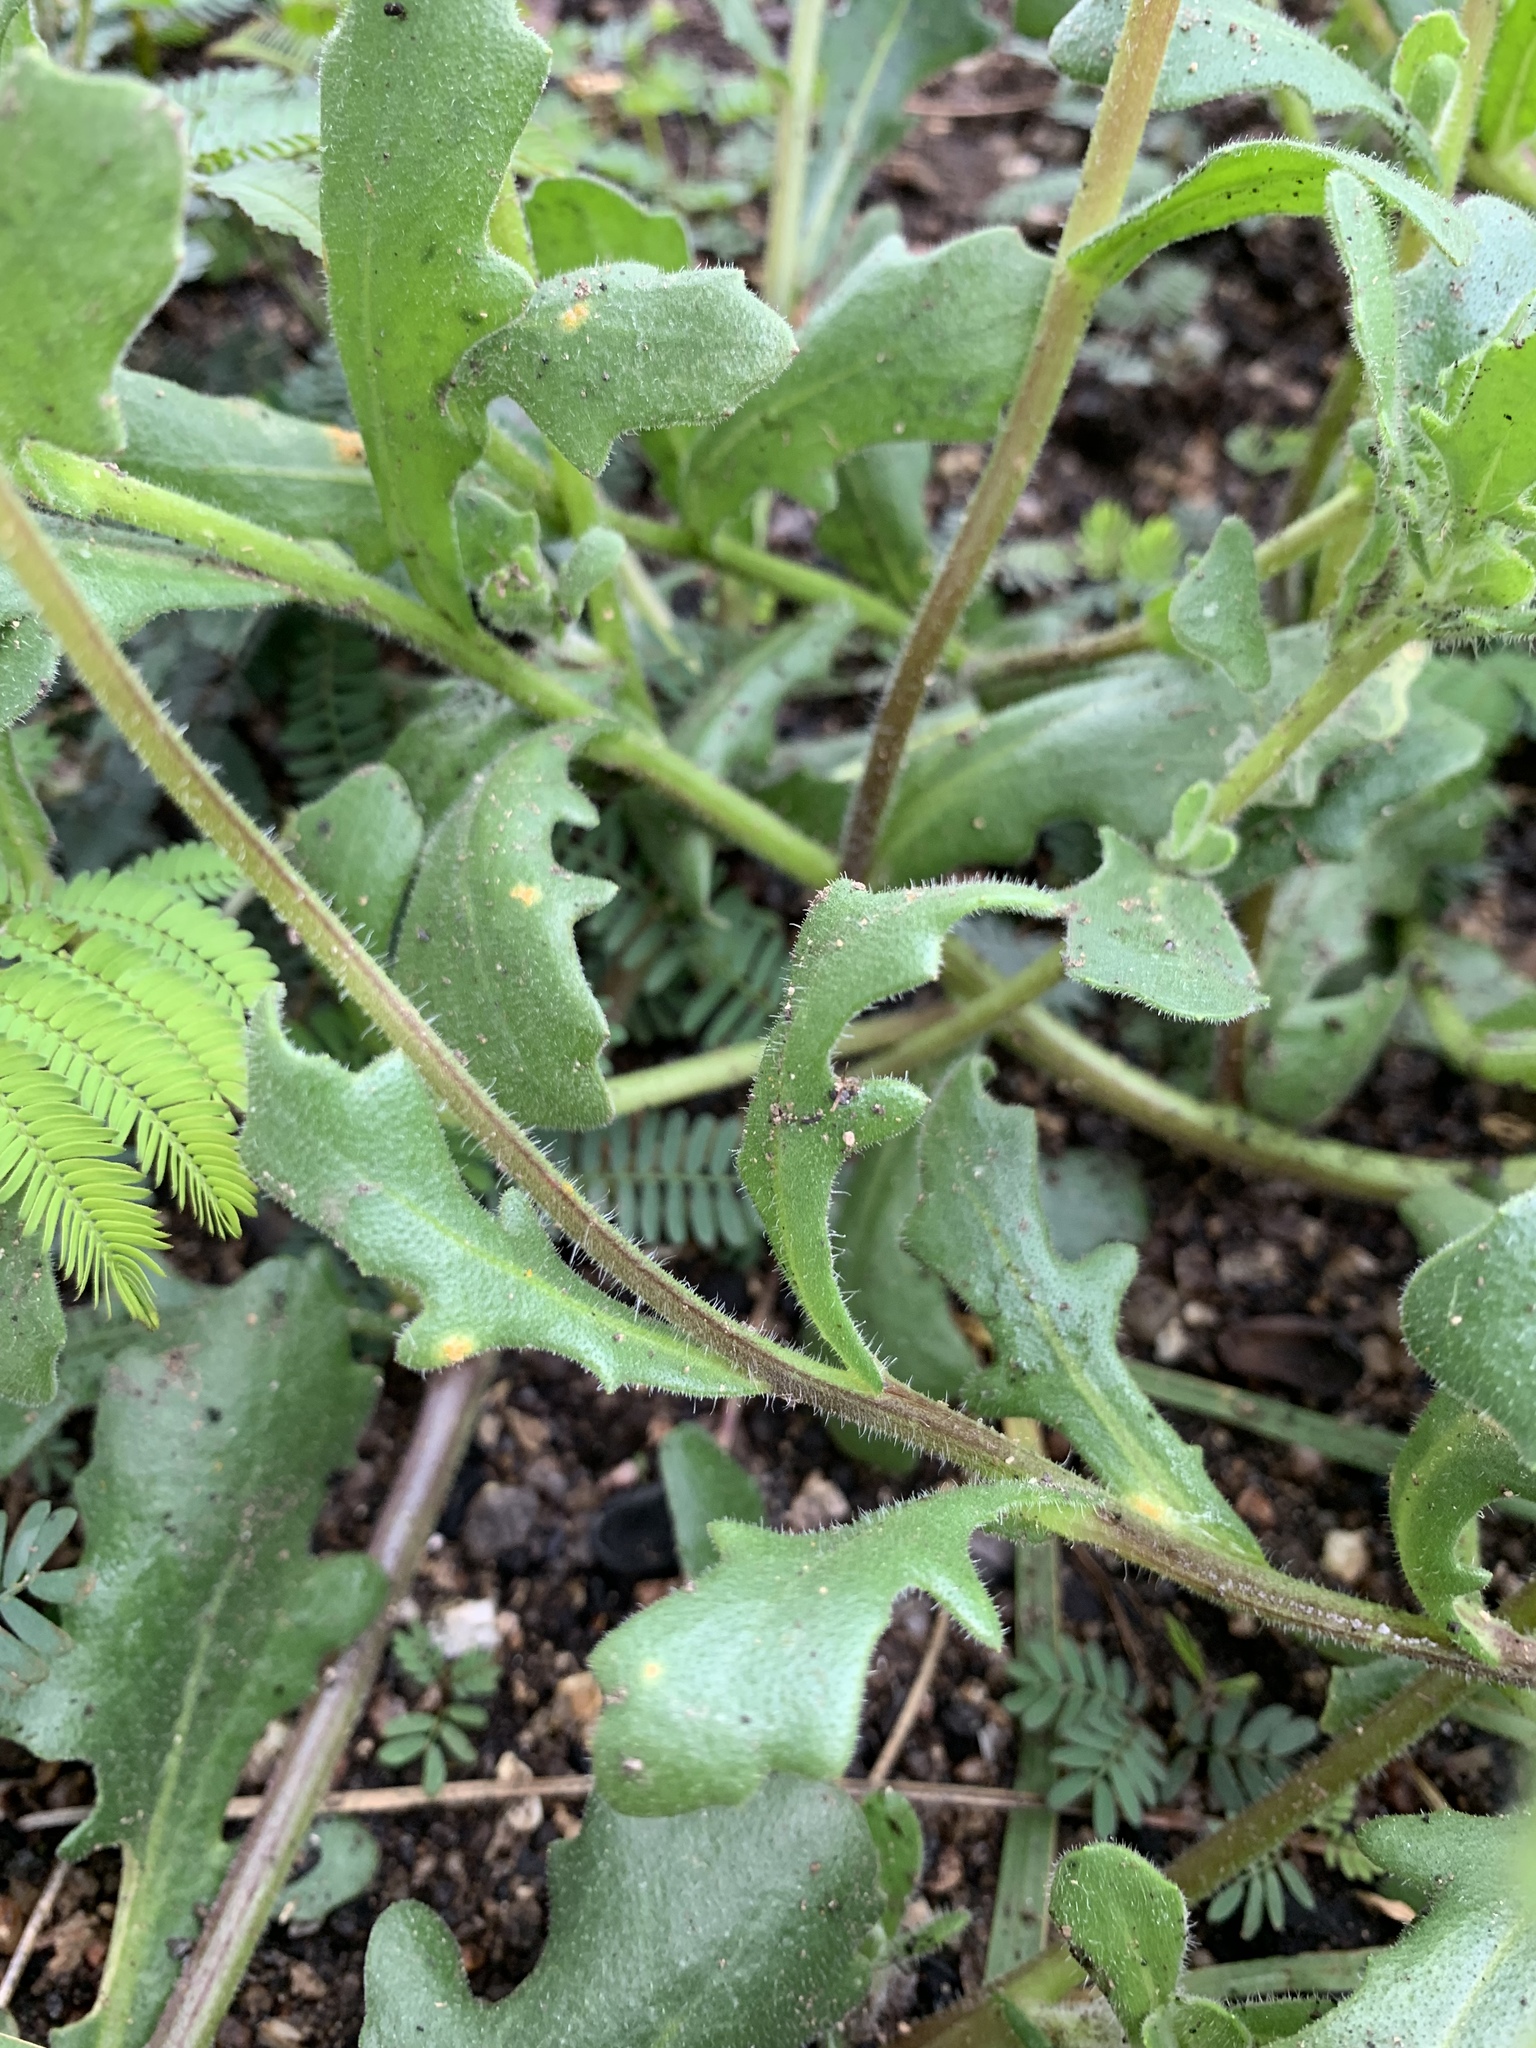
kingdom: Plantae
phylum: Tracheophyta
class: Magnoliopsida
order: Asterales
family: Asteraceae
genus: Dimorphotheca
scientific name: Dimorphotheca pluvialis
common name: Weather prophet
